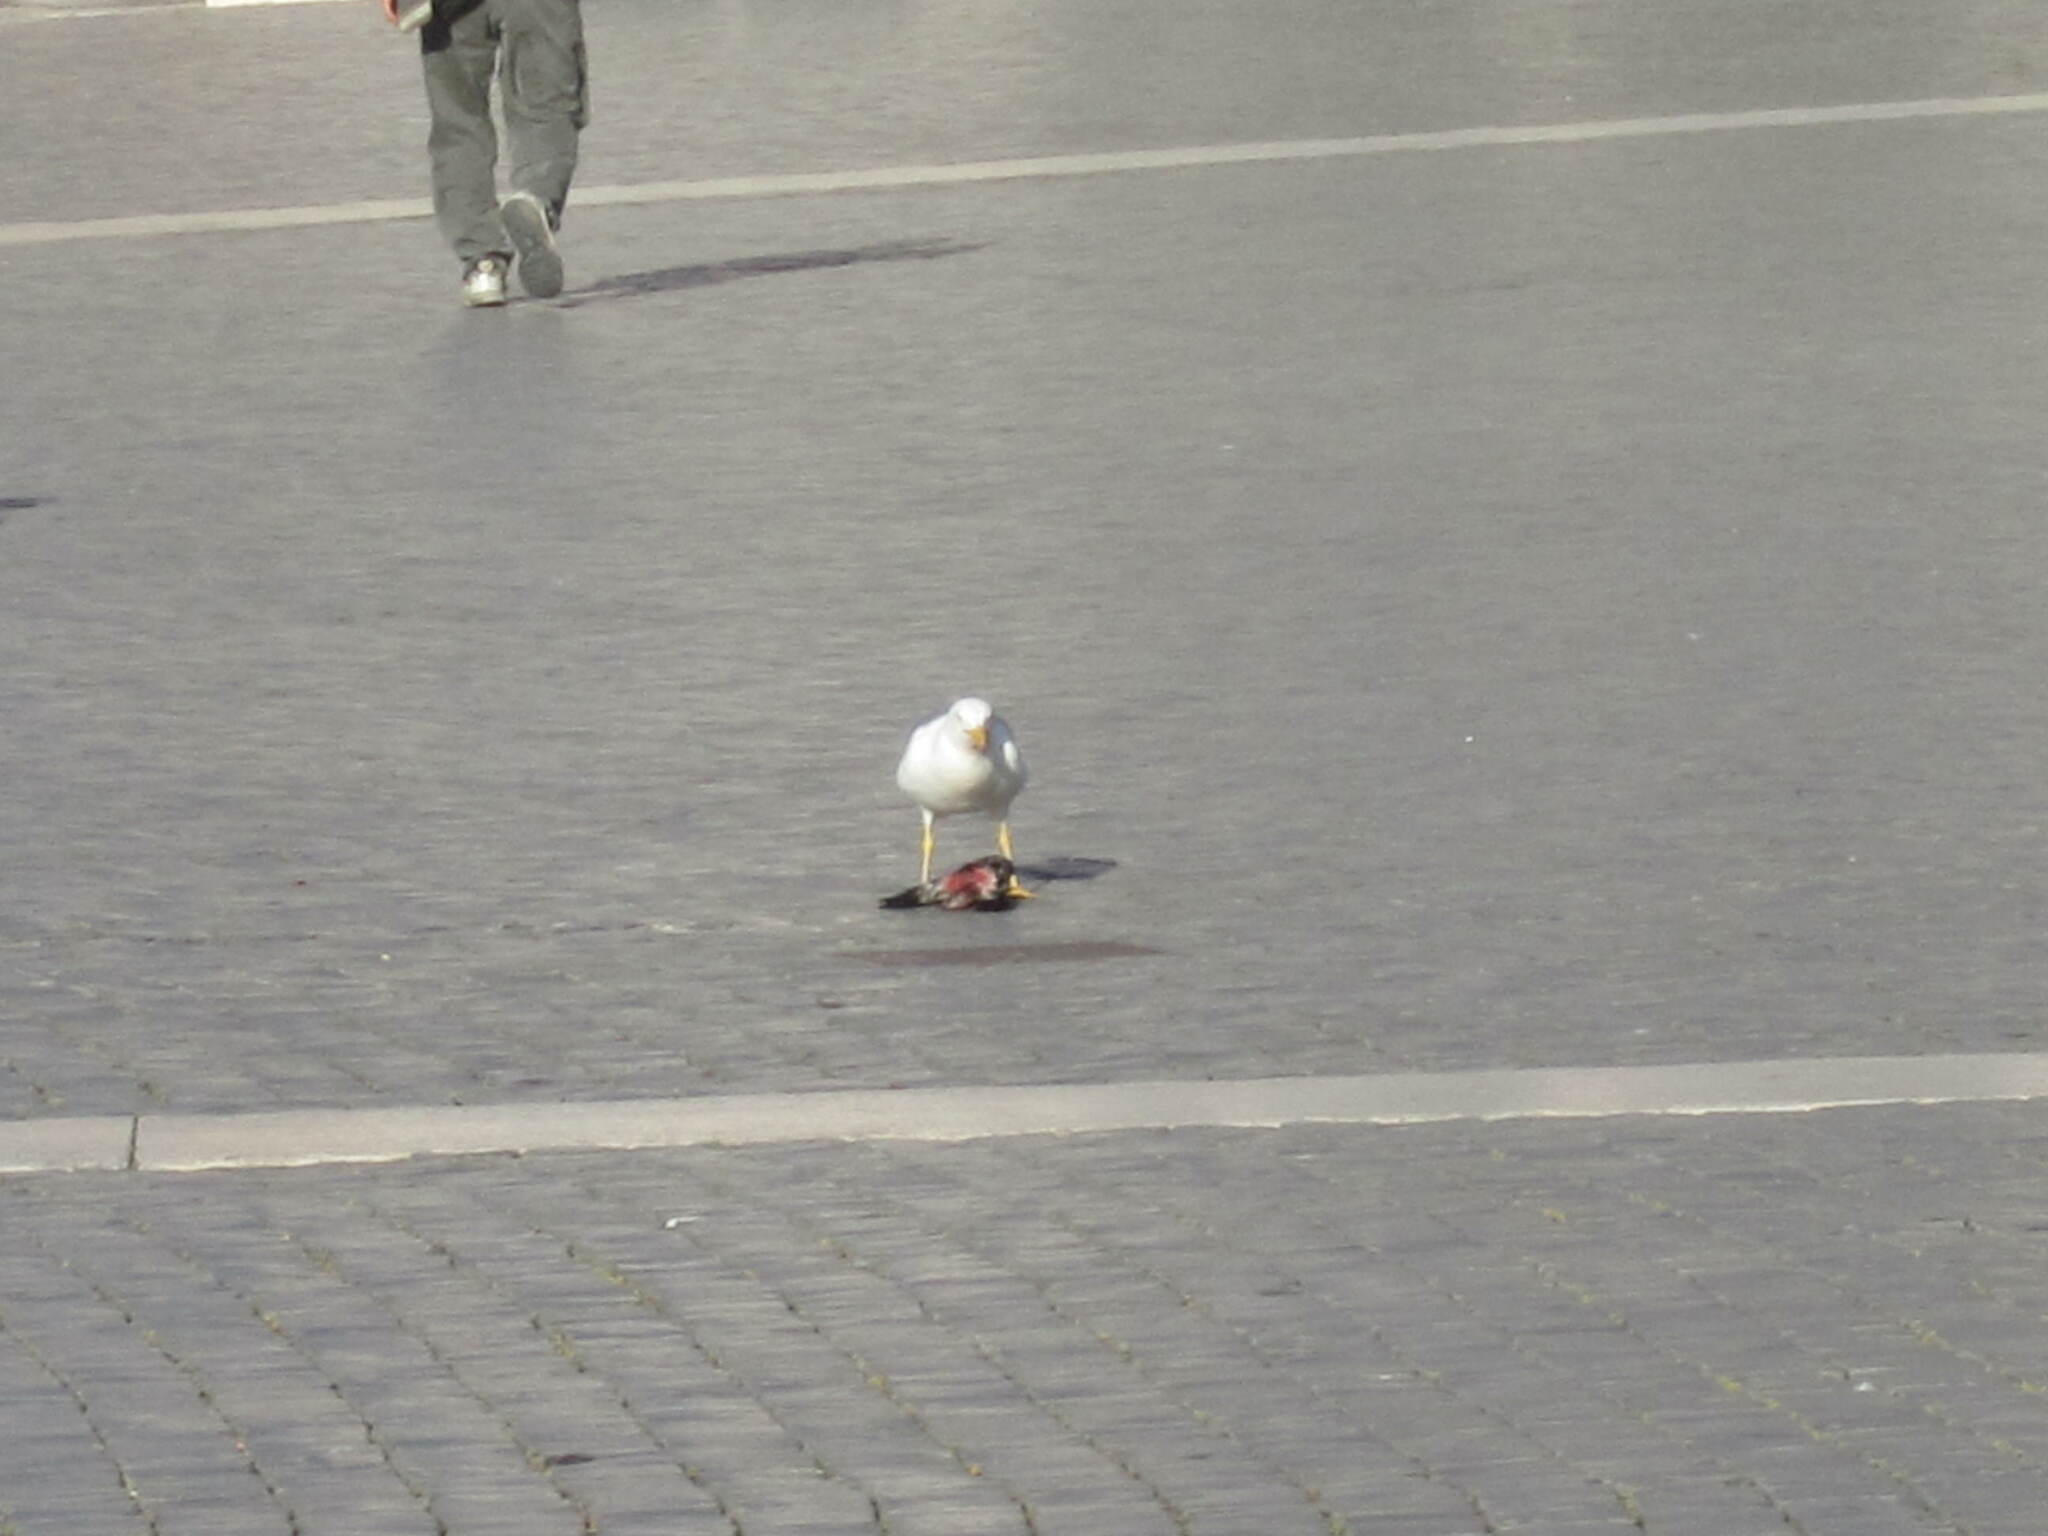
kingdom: Animalia
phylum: Chordata
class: Aves
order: Charadriiformes
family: Laridae
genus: Larus
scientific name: Larus michahellis
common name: Yellow-legged gull
